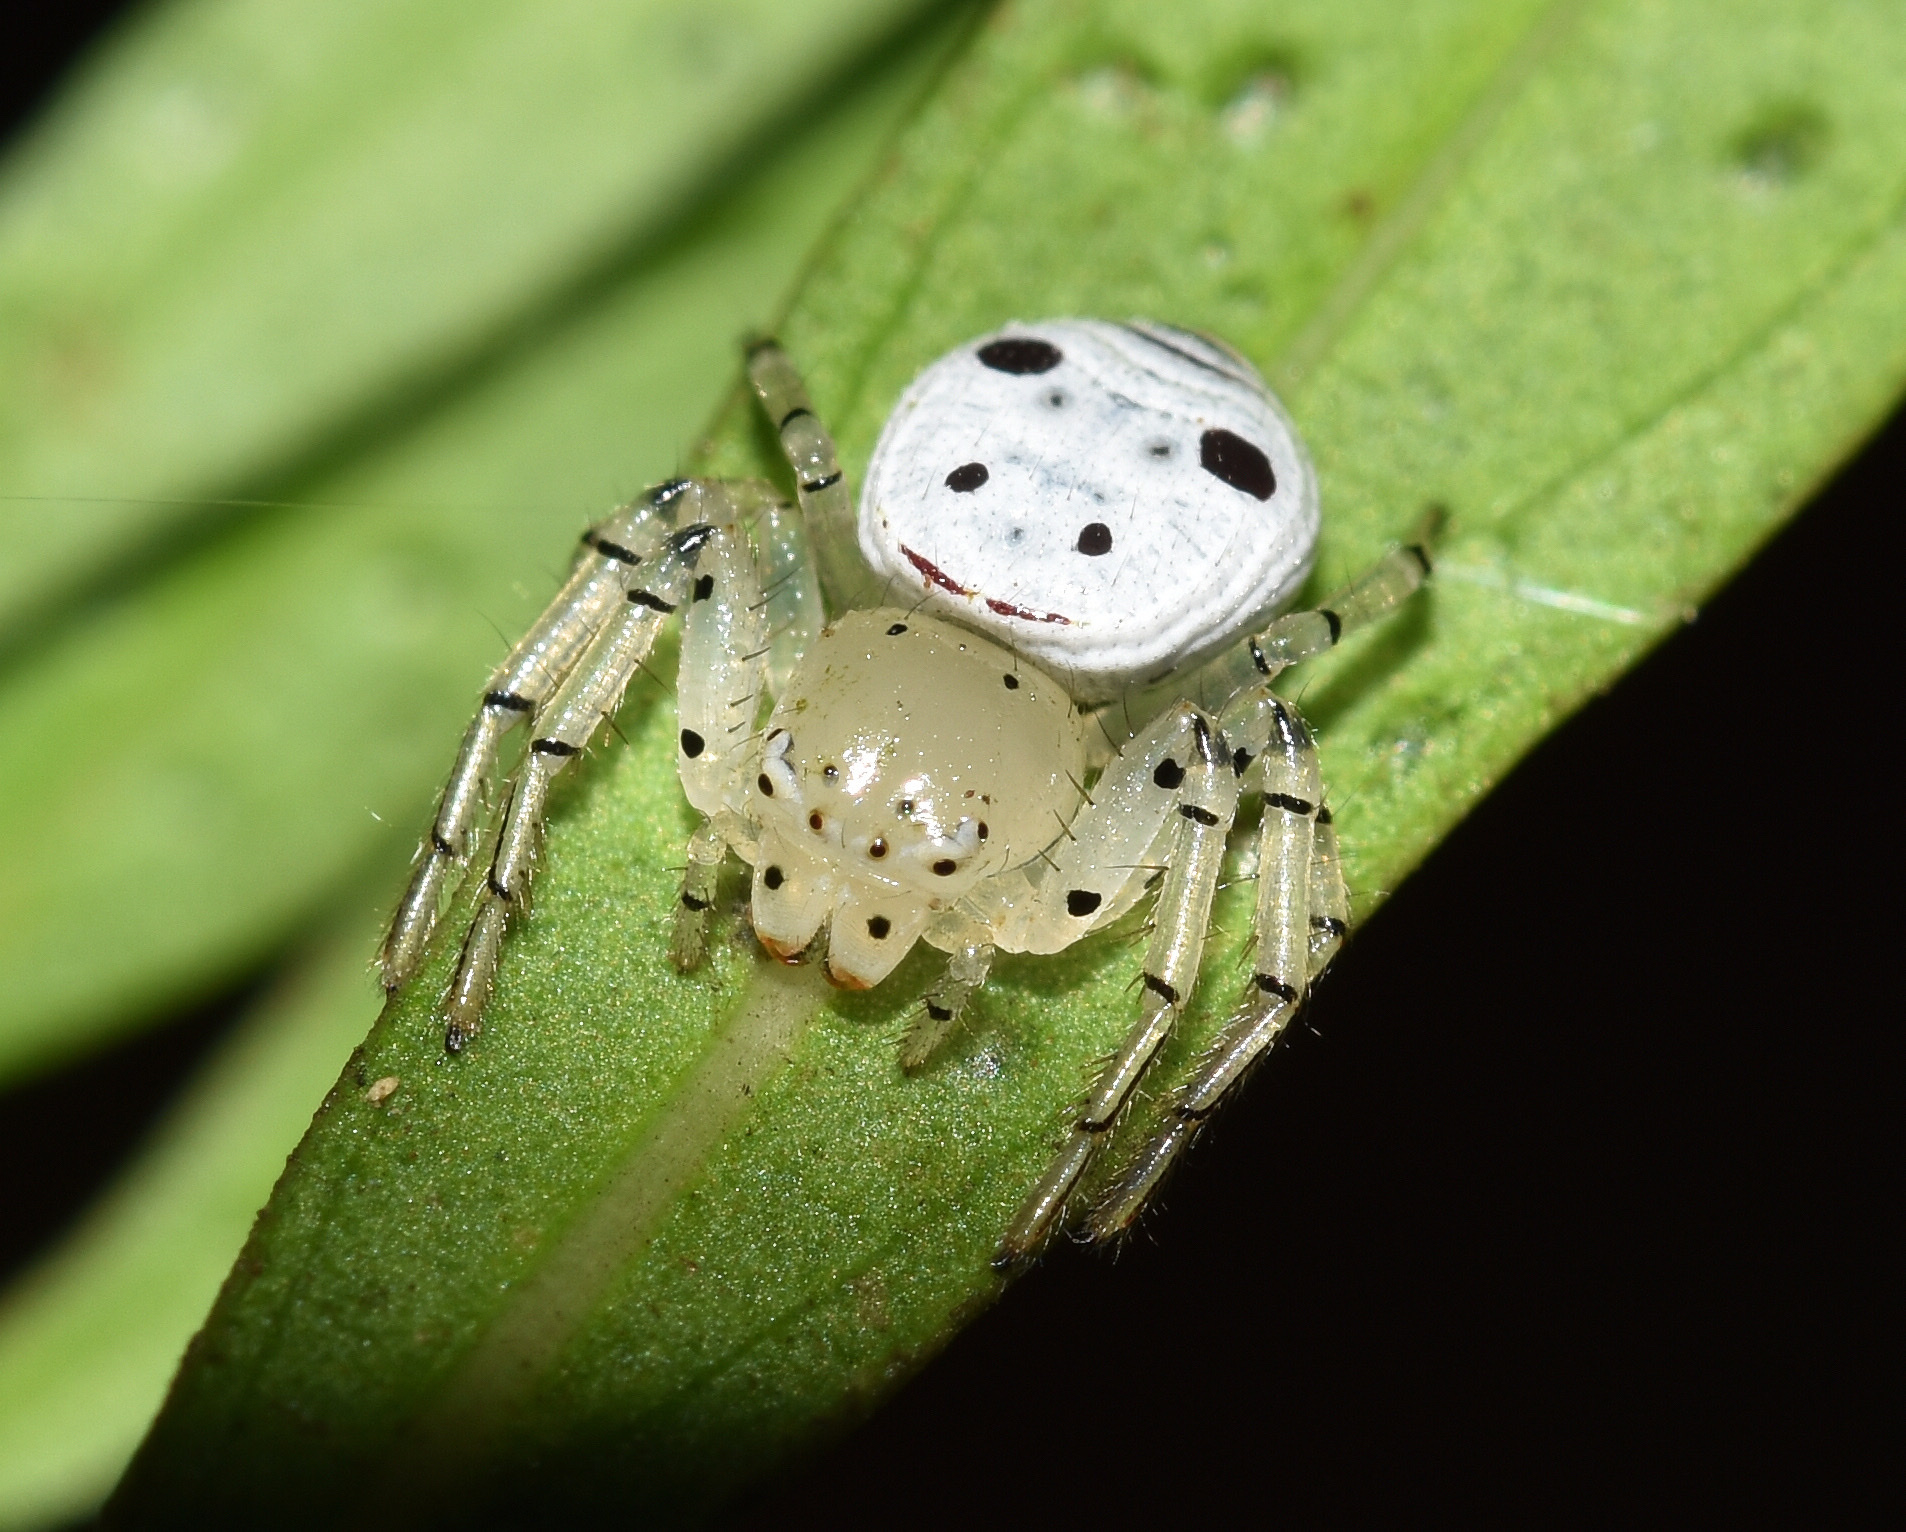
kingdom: Animalia
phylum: Arthropoda
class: Arachnida
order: Araneae
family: Thomisidae
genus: Firmicus
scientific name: Firmicus bragantinus
